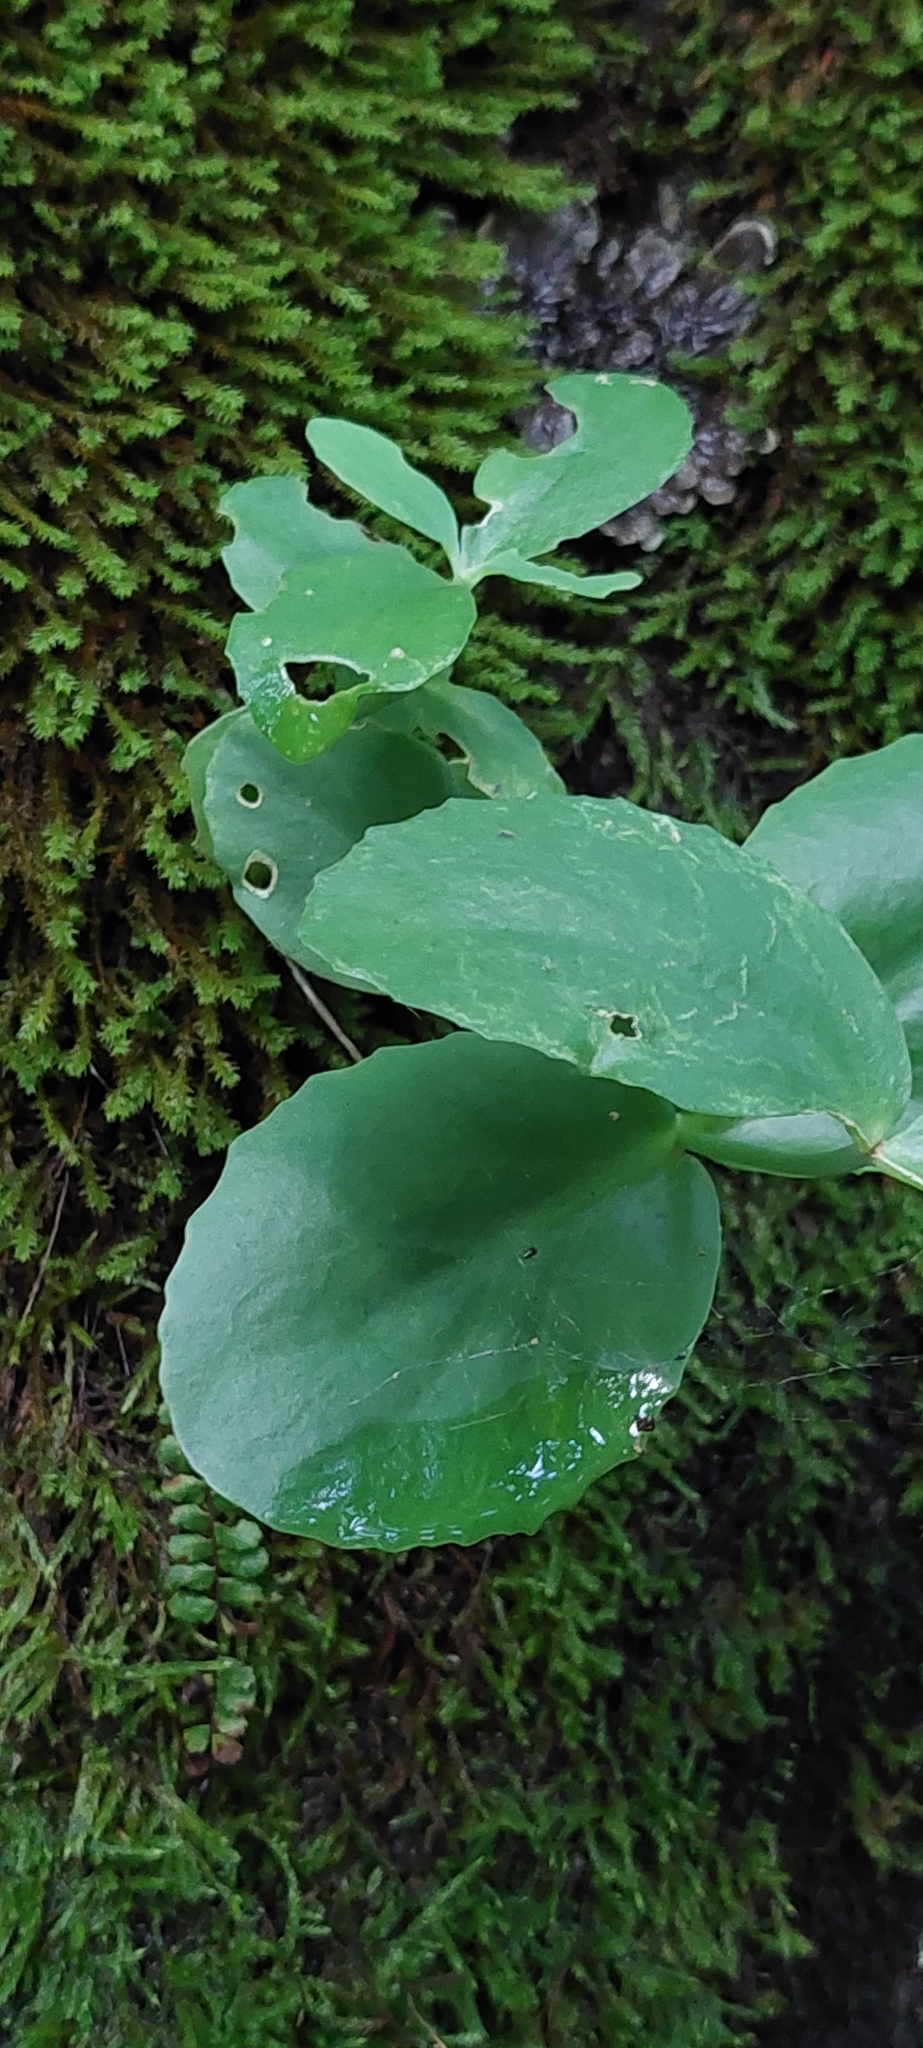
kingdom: Plantae
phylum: Tracheophyta
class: Magnoliopsida
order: Saxifragales
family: Crassulaceae
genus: Hylotelephium
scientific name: Hylotelephium maximum
